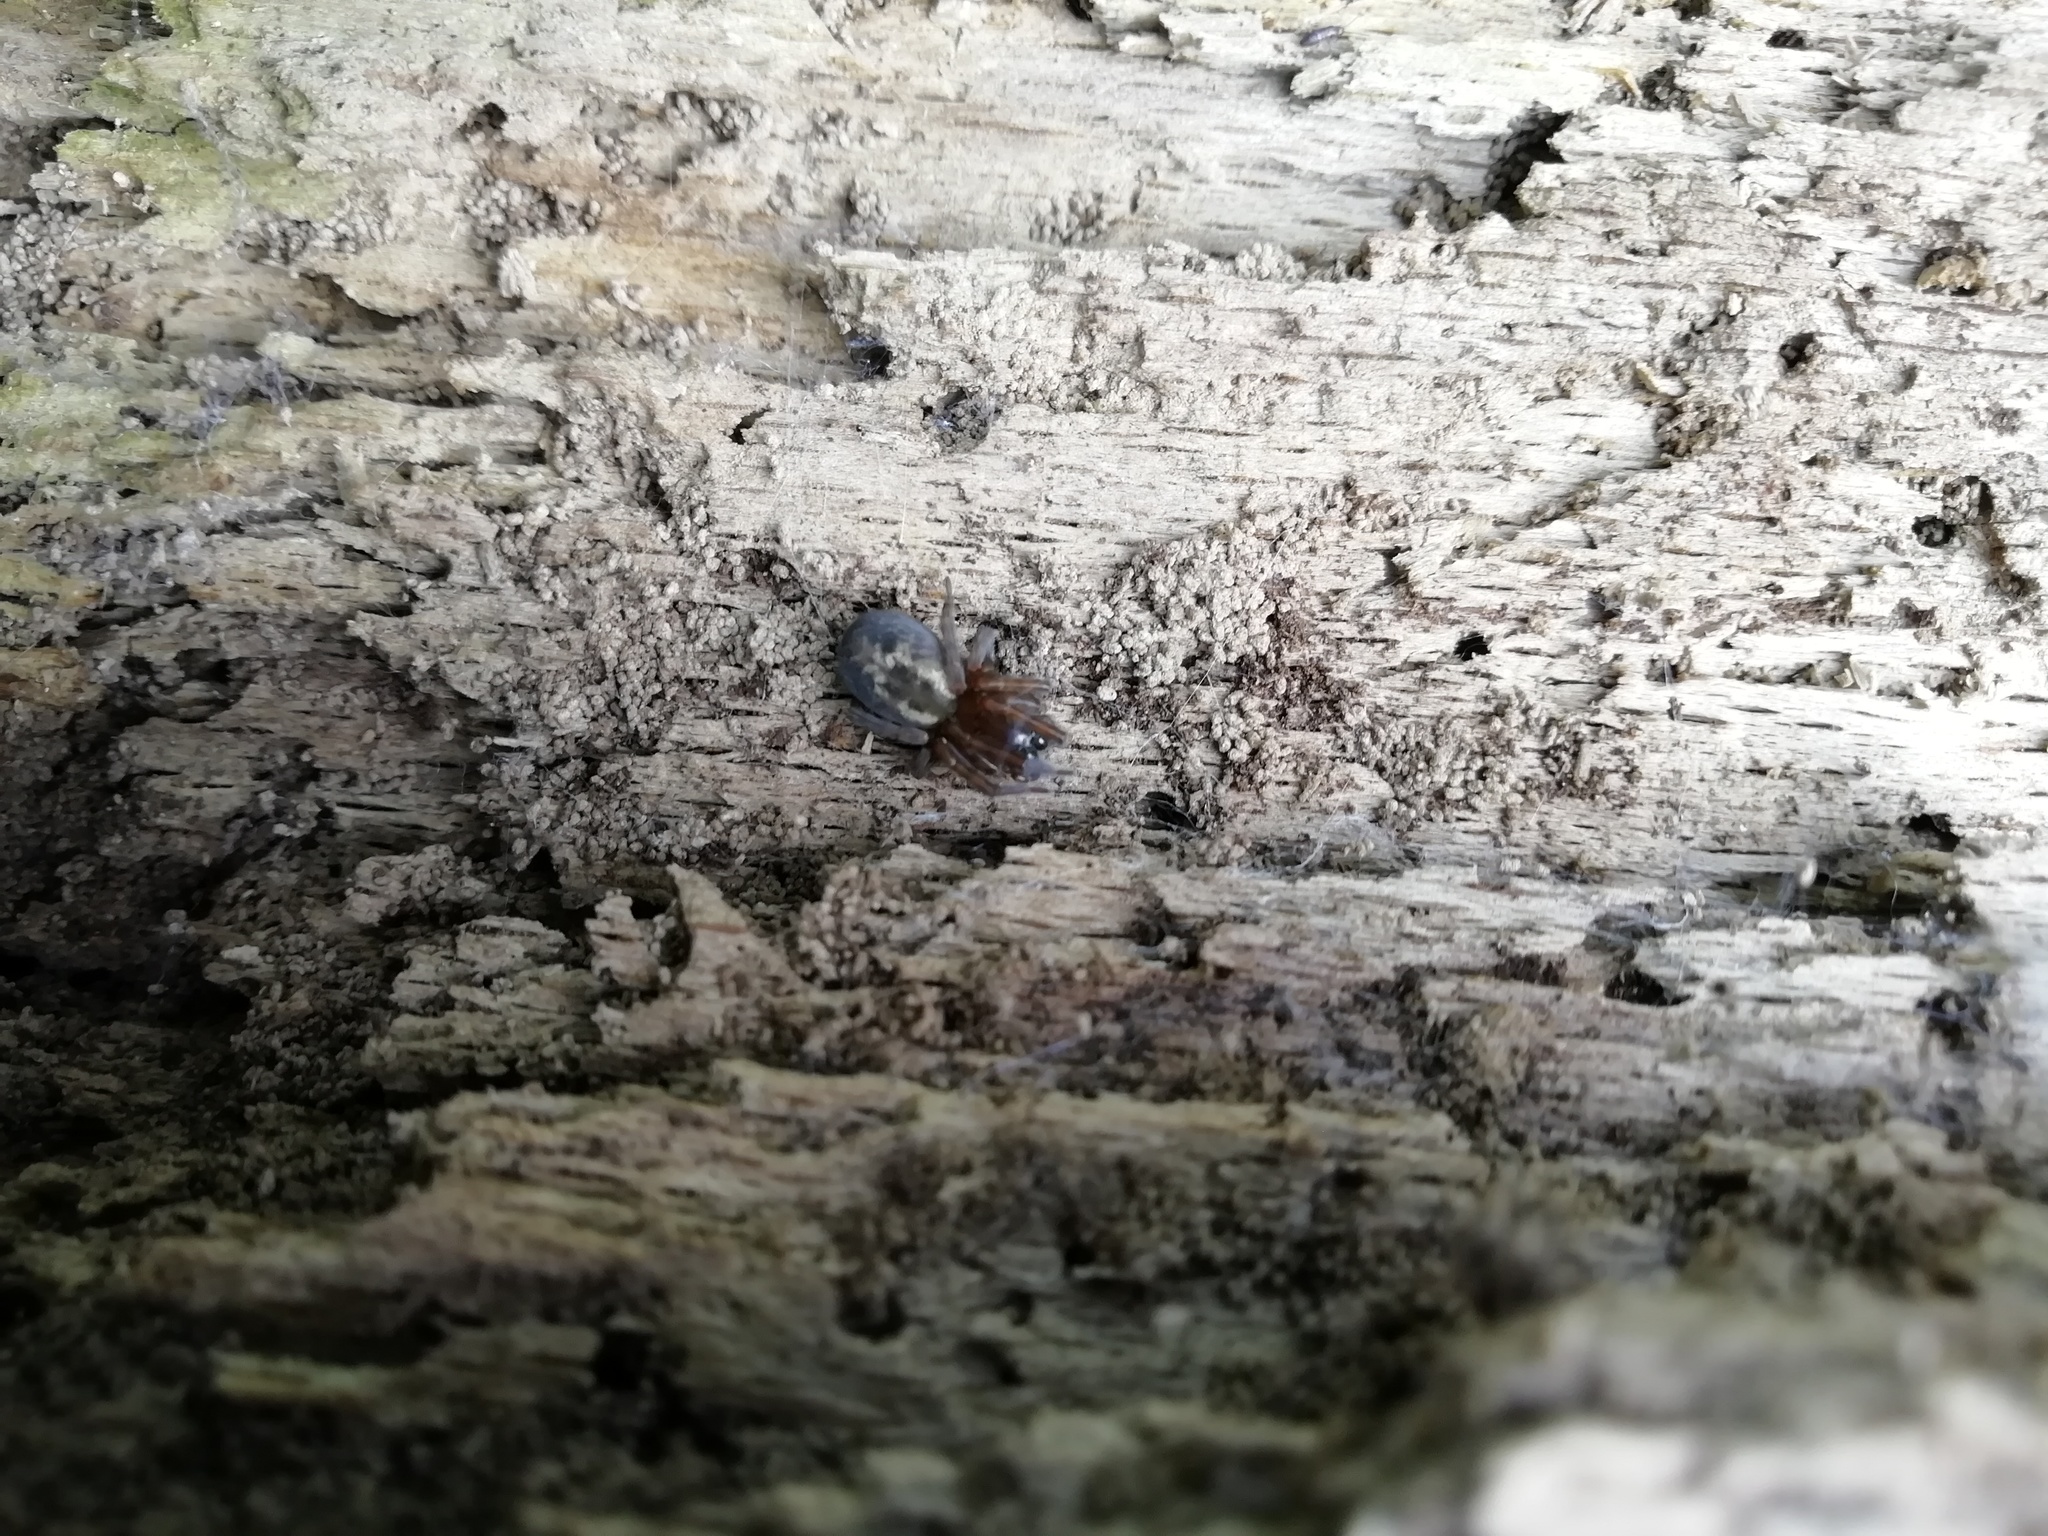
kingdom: Animalia
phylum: Arthropoda
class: Arachnida
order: Araneae
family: Amaurobiidae
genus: Amaurobius
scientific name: Amaurobius
